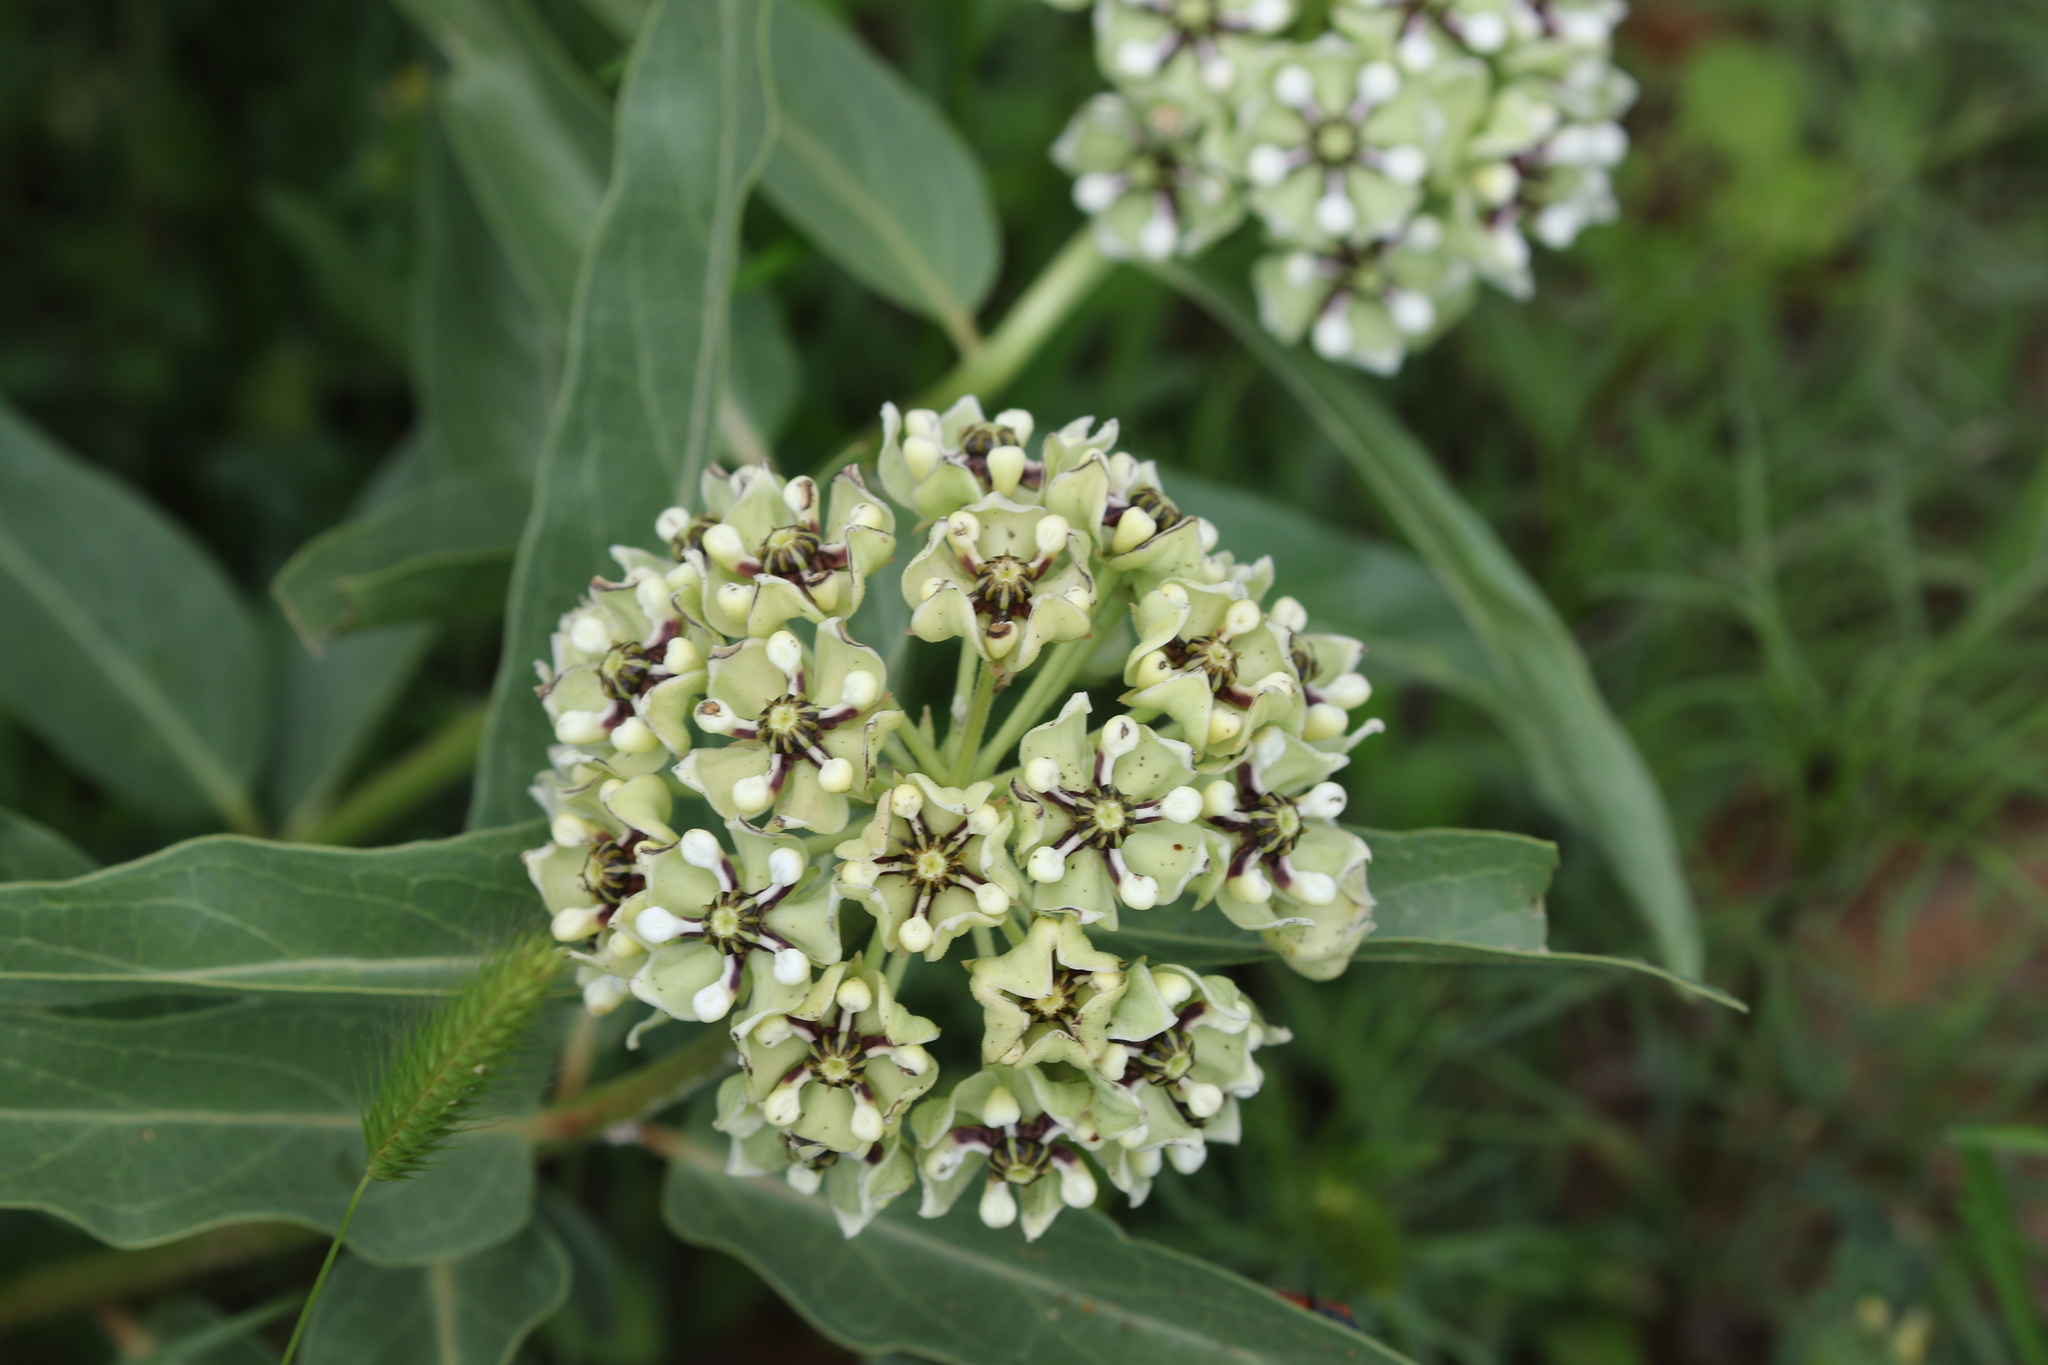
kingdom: Plantae
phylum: Tracheophyta
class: Magnoliopsida
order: Gentianales
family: Apocynaceae
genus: Asclepias
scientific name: Asclepias asperula
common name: Antelope horns
